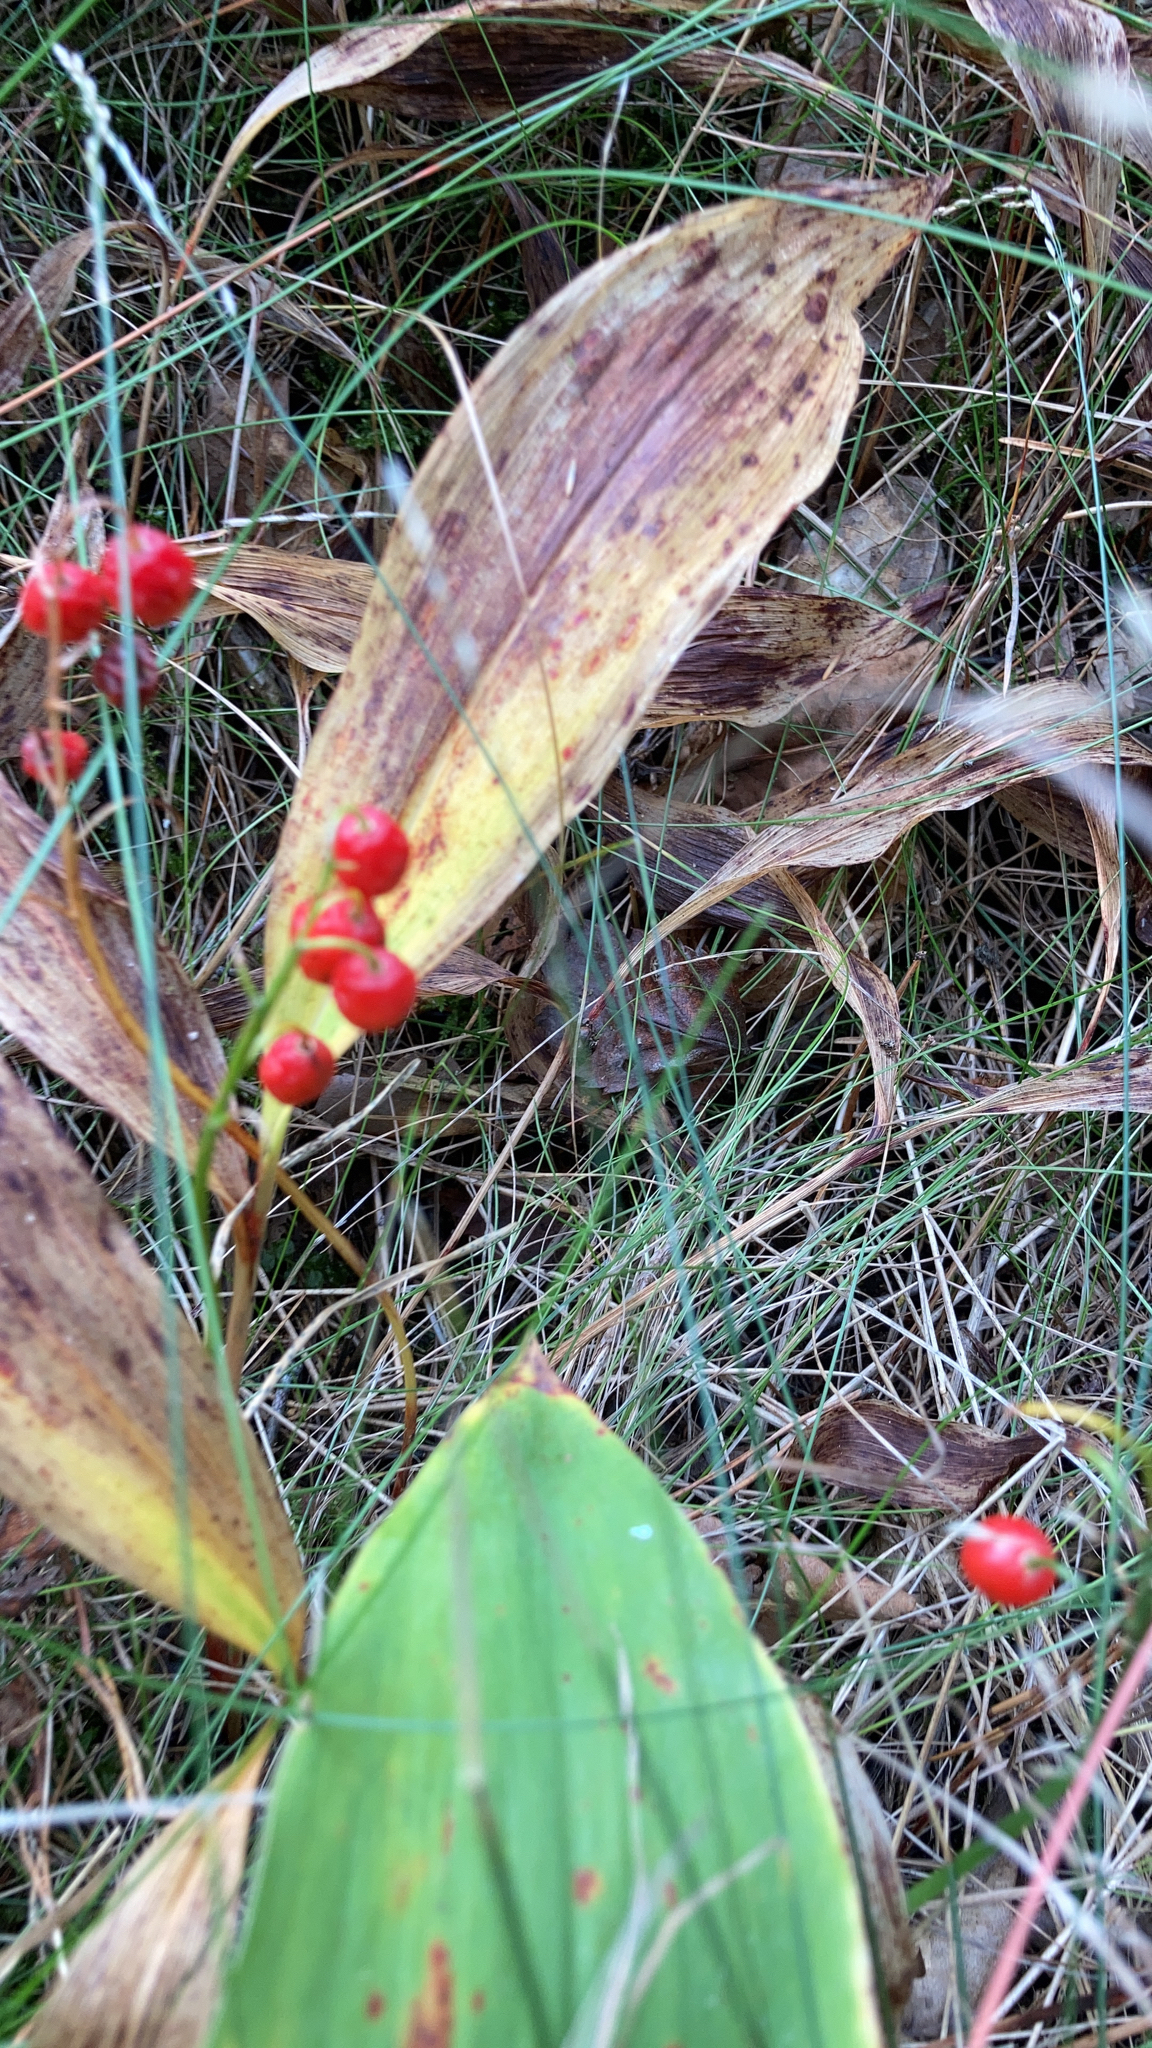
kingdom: Plantae
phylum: Tracheophyta
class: Liliopsida
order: Asparagales
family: Asparagaceae
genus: Convallaria
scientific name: Convallaria majalis
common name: Lily-of-the-valley
